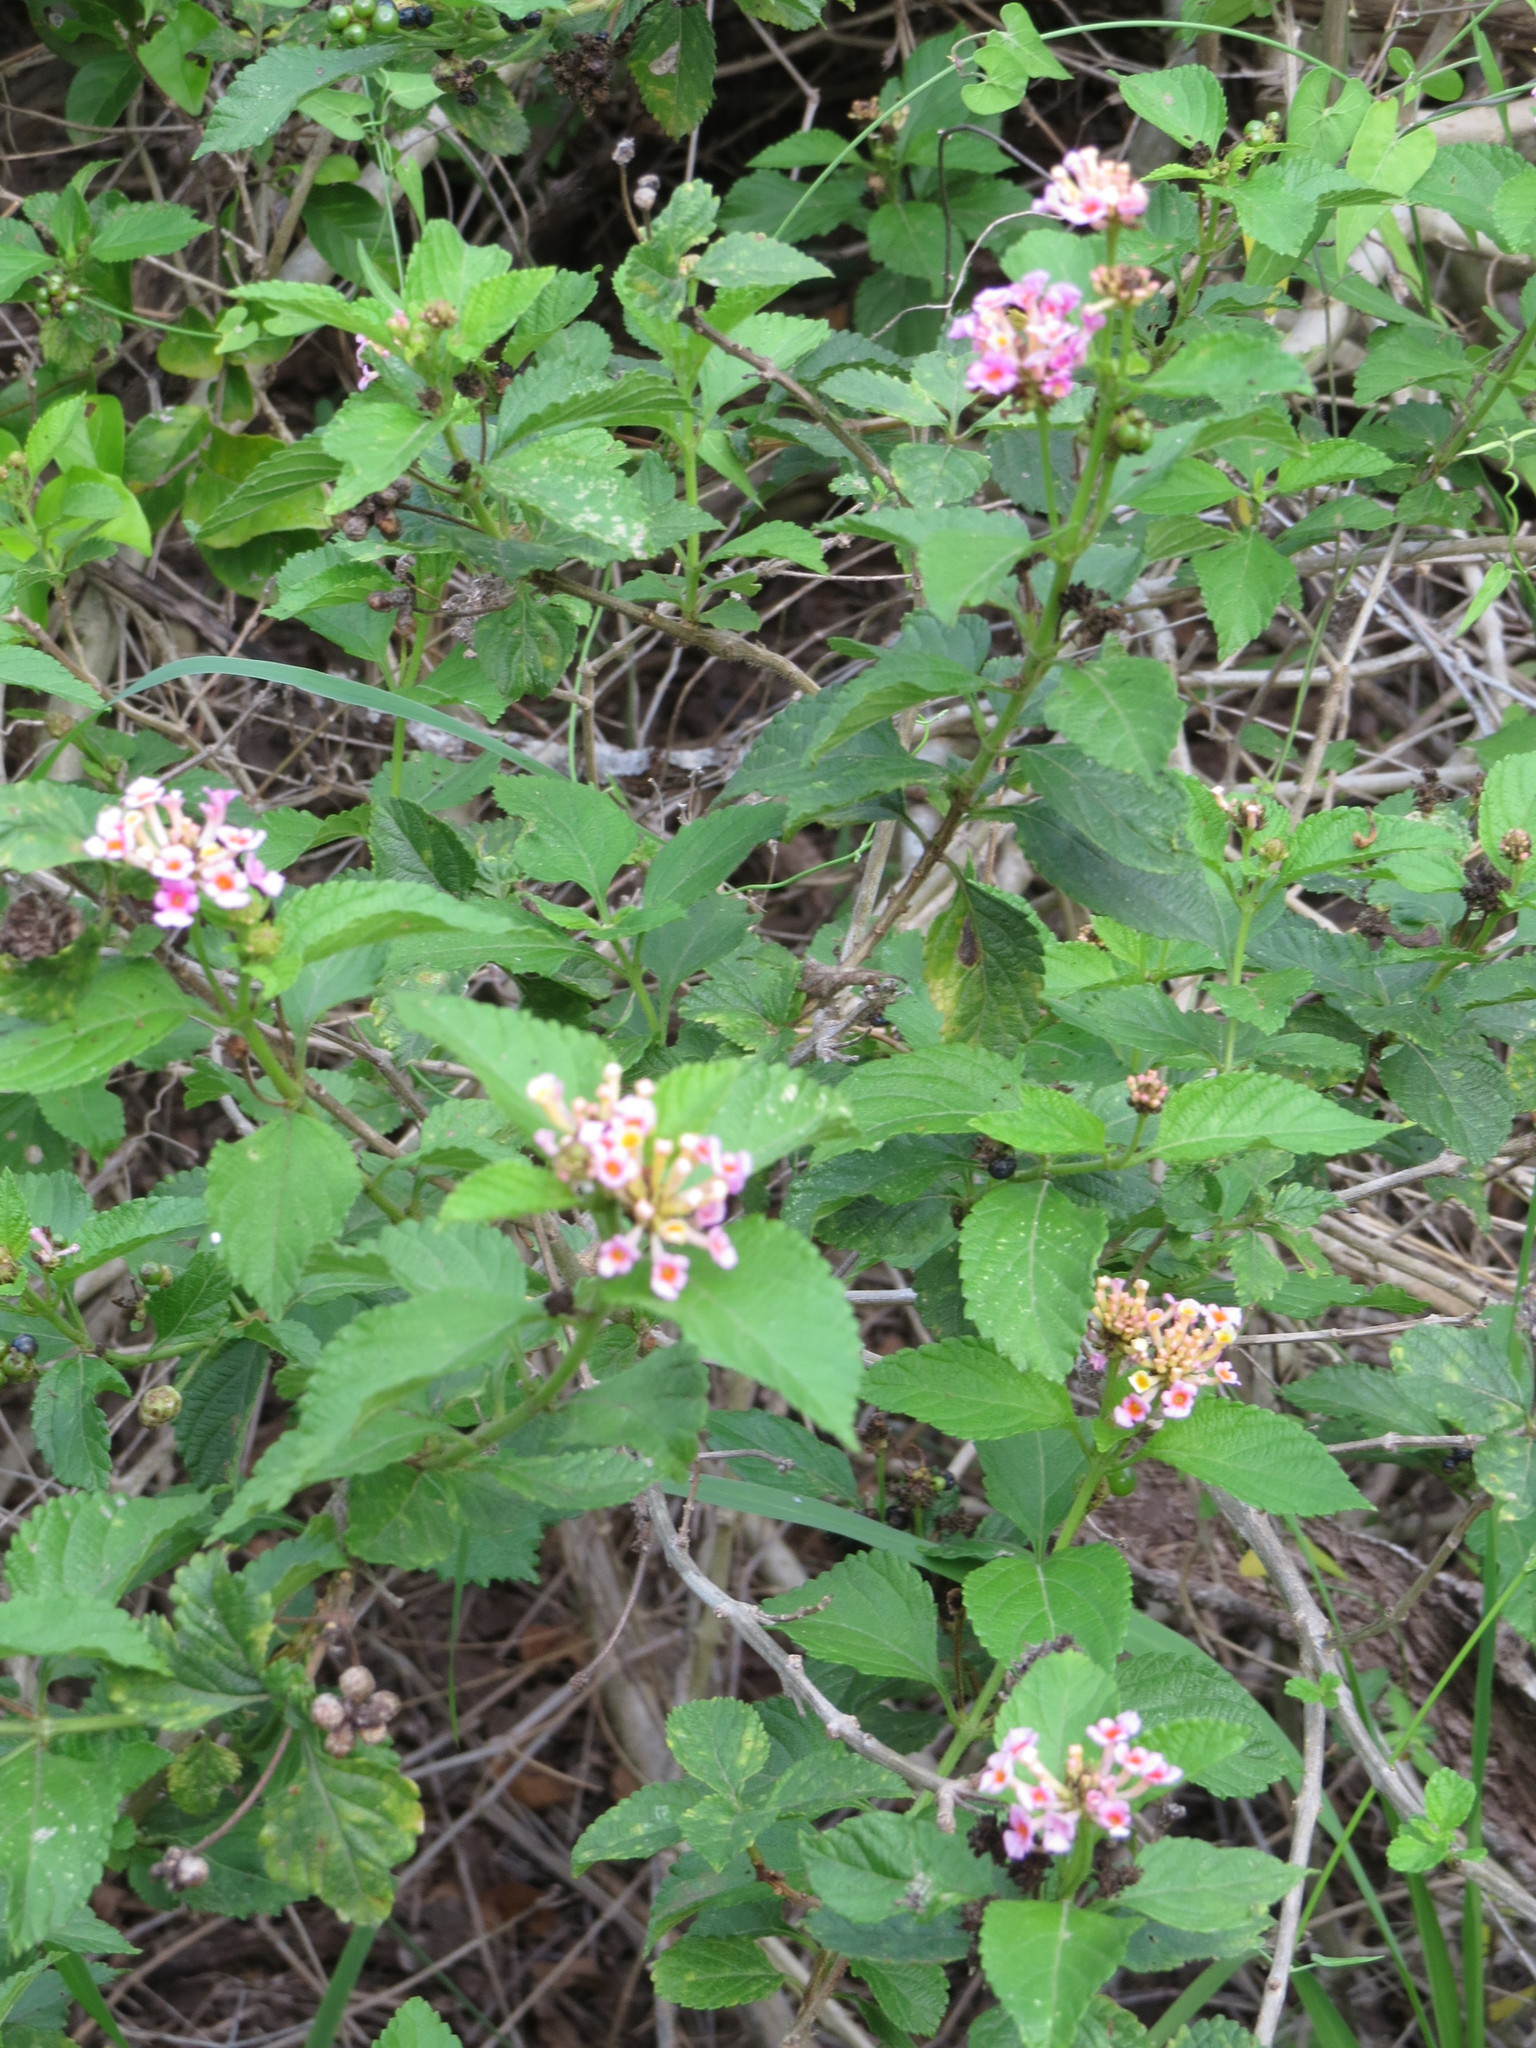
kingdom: Plantae
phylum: Tracheophyta
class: Magnoliopsida
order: Lamiales
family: Verbenaceae
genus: Lantana
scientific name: Lantana strigocamara
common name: Lantana
